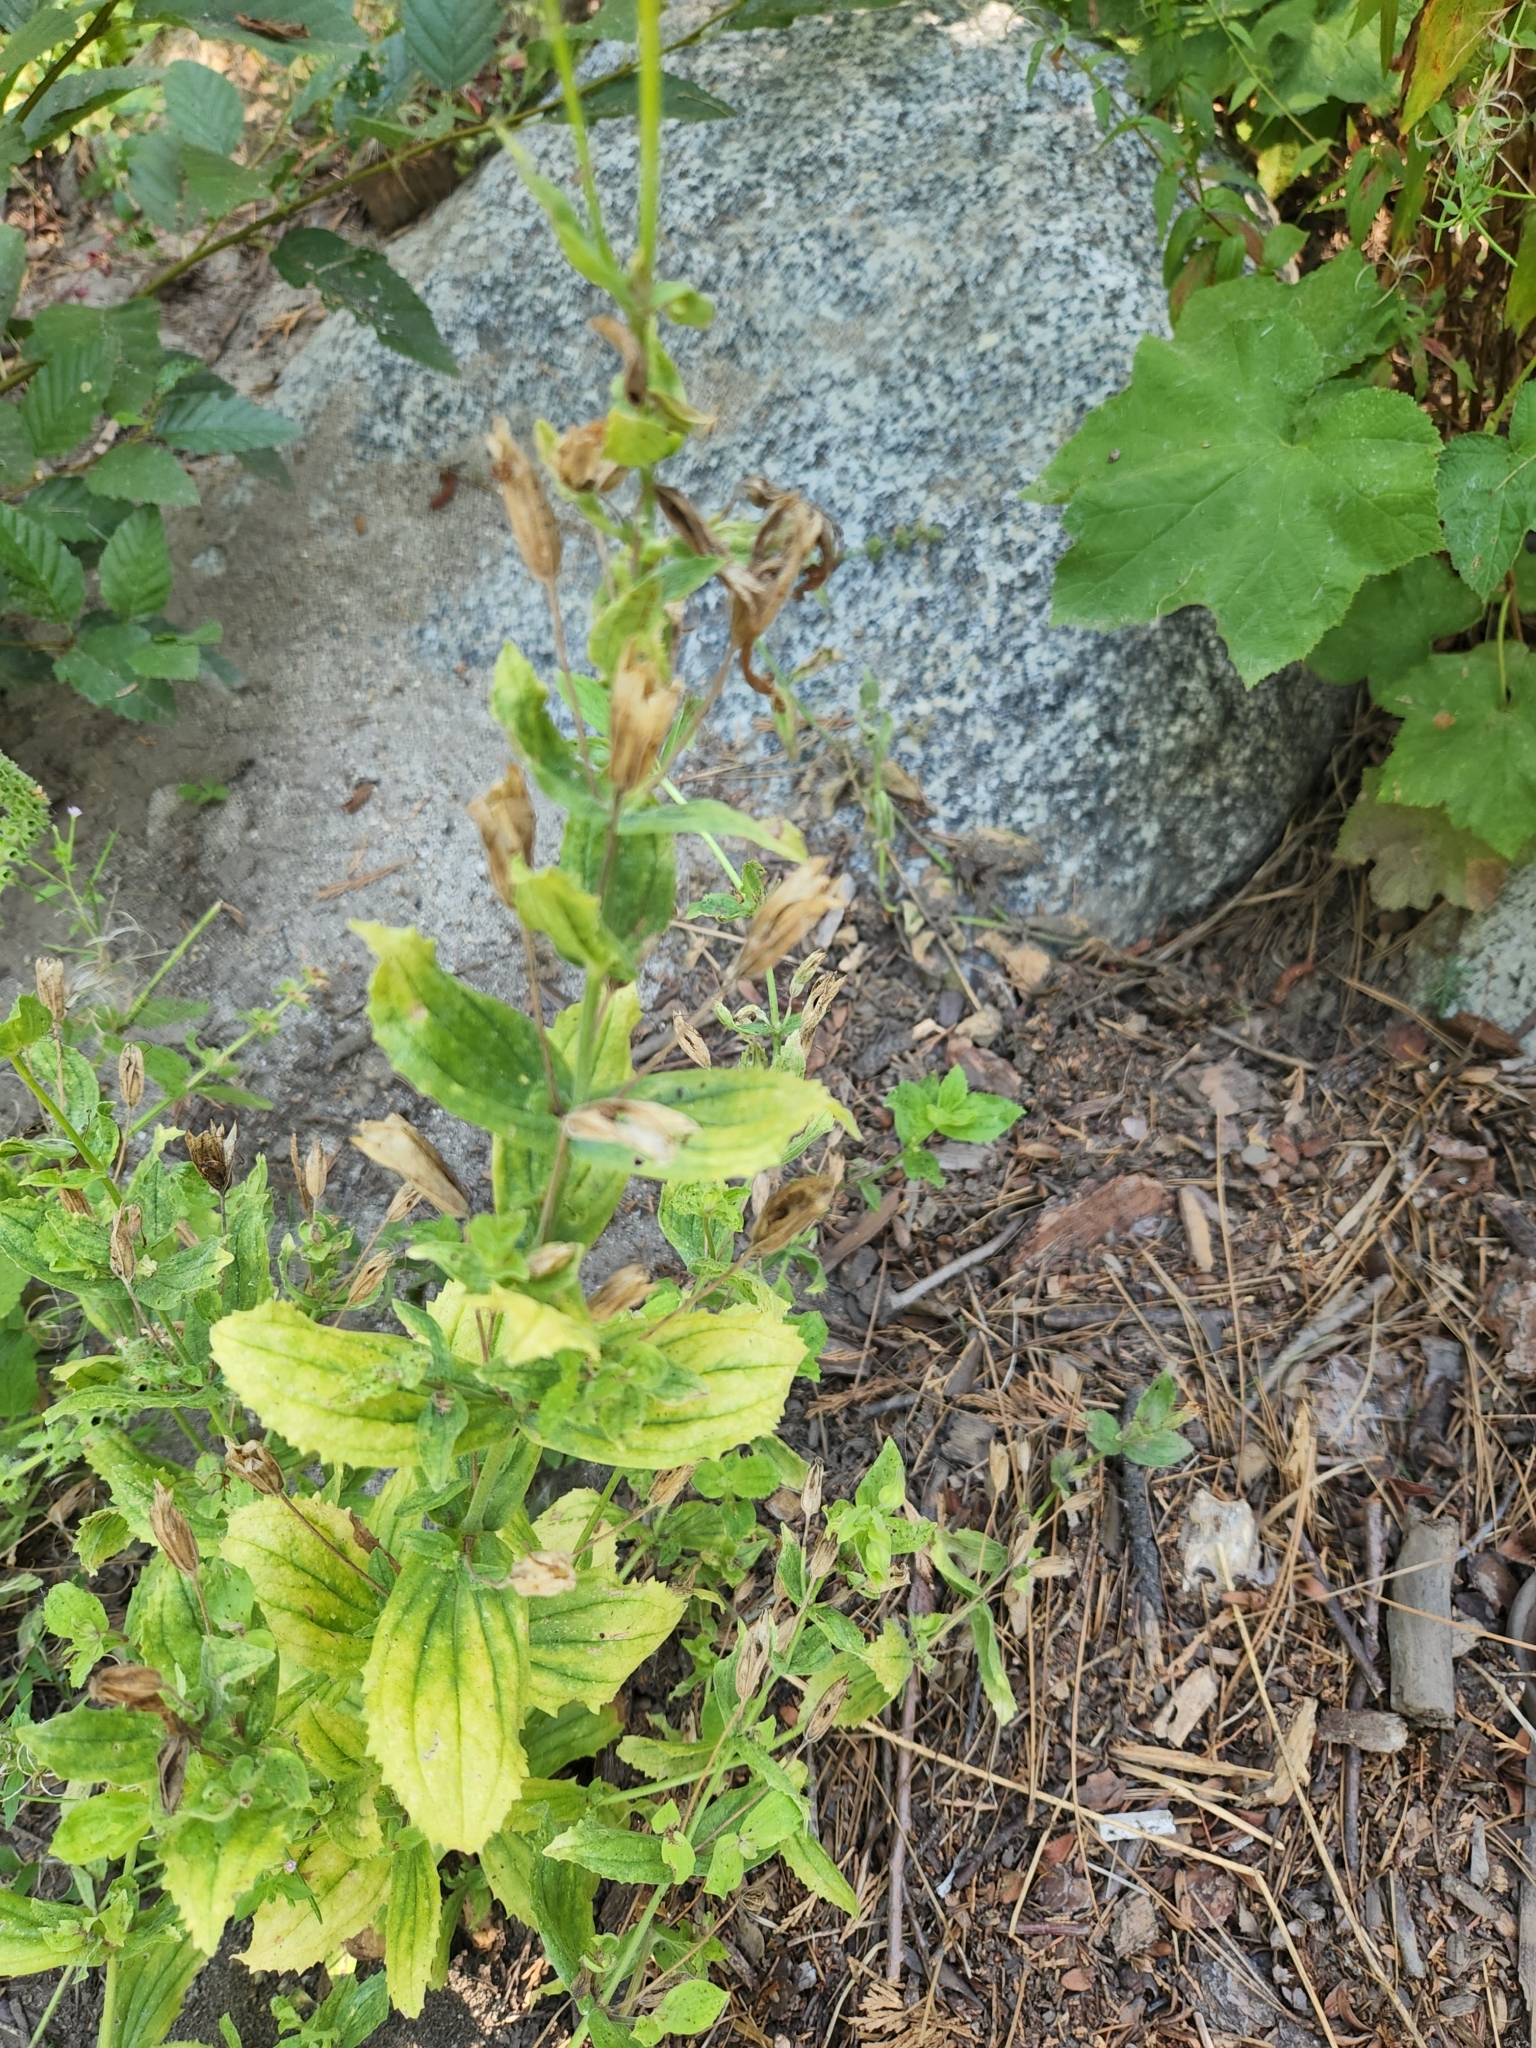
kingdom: Plantae
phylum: Tracheophyta
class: Magnoliopsida
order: Lamiales
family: Phrymaceae
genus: Erythranthe
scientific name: Erythranthe cardinalis
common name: Scarlet monkey-flower
